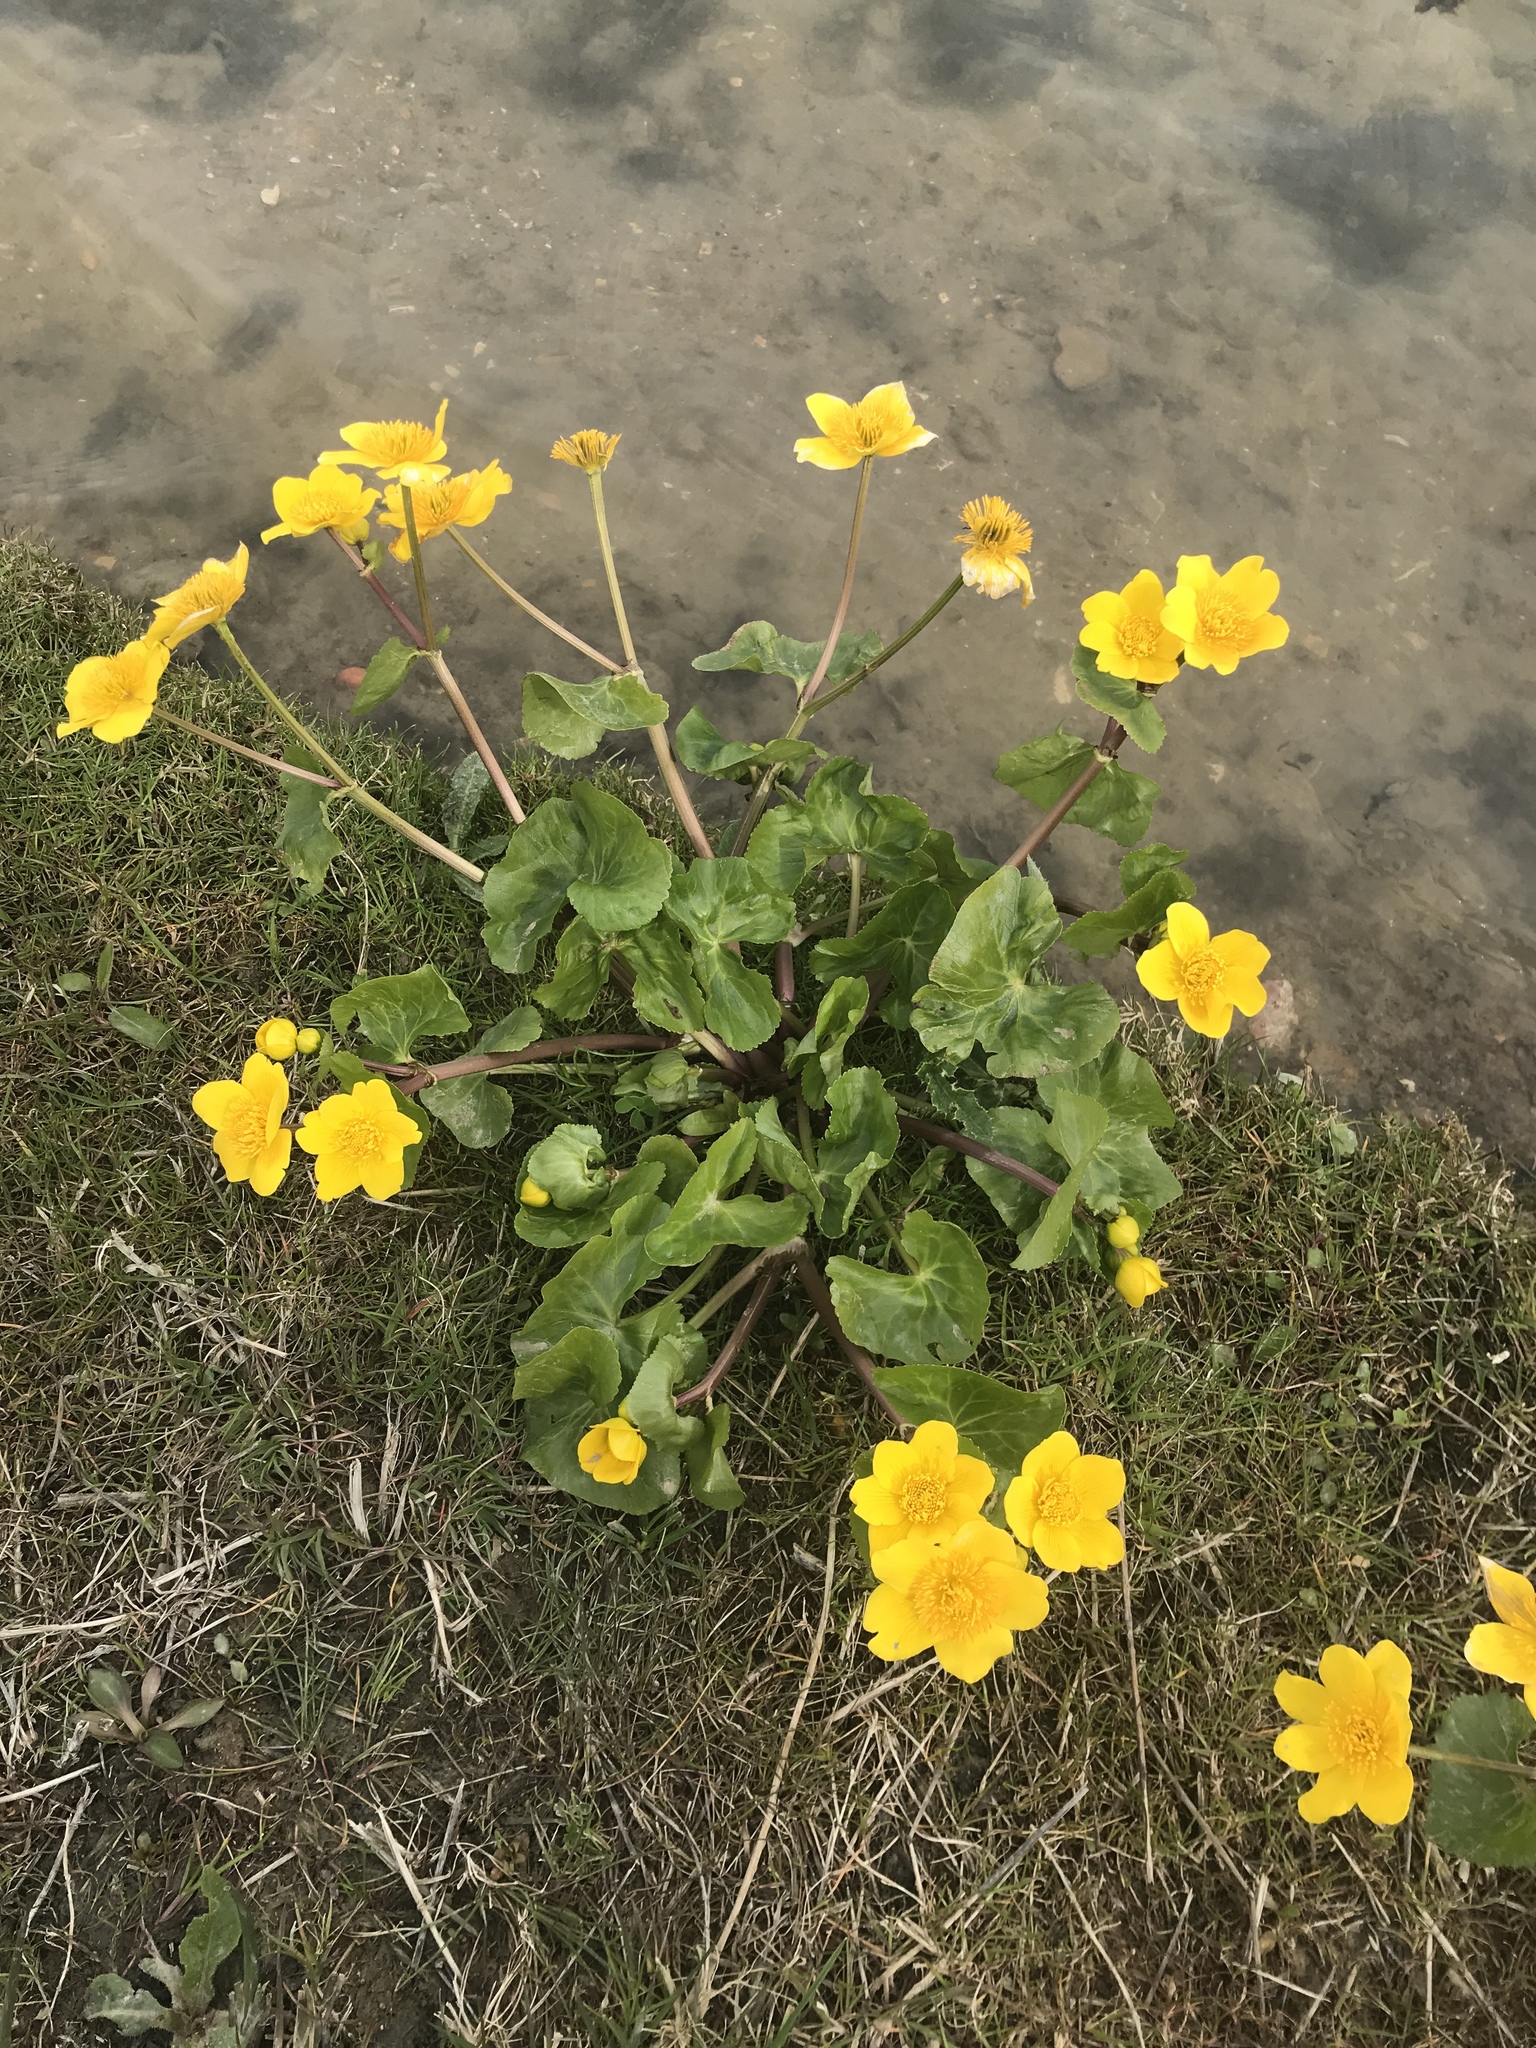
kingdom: Plantae
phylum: Tracheophyta
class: Magnoliopsida
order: Ranunculales
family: Ranunculaceae
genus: Caltha
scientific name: Caltha palustris
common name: Marsh marigold
